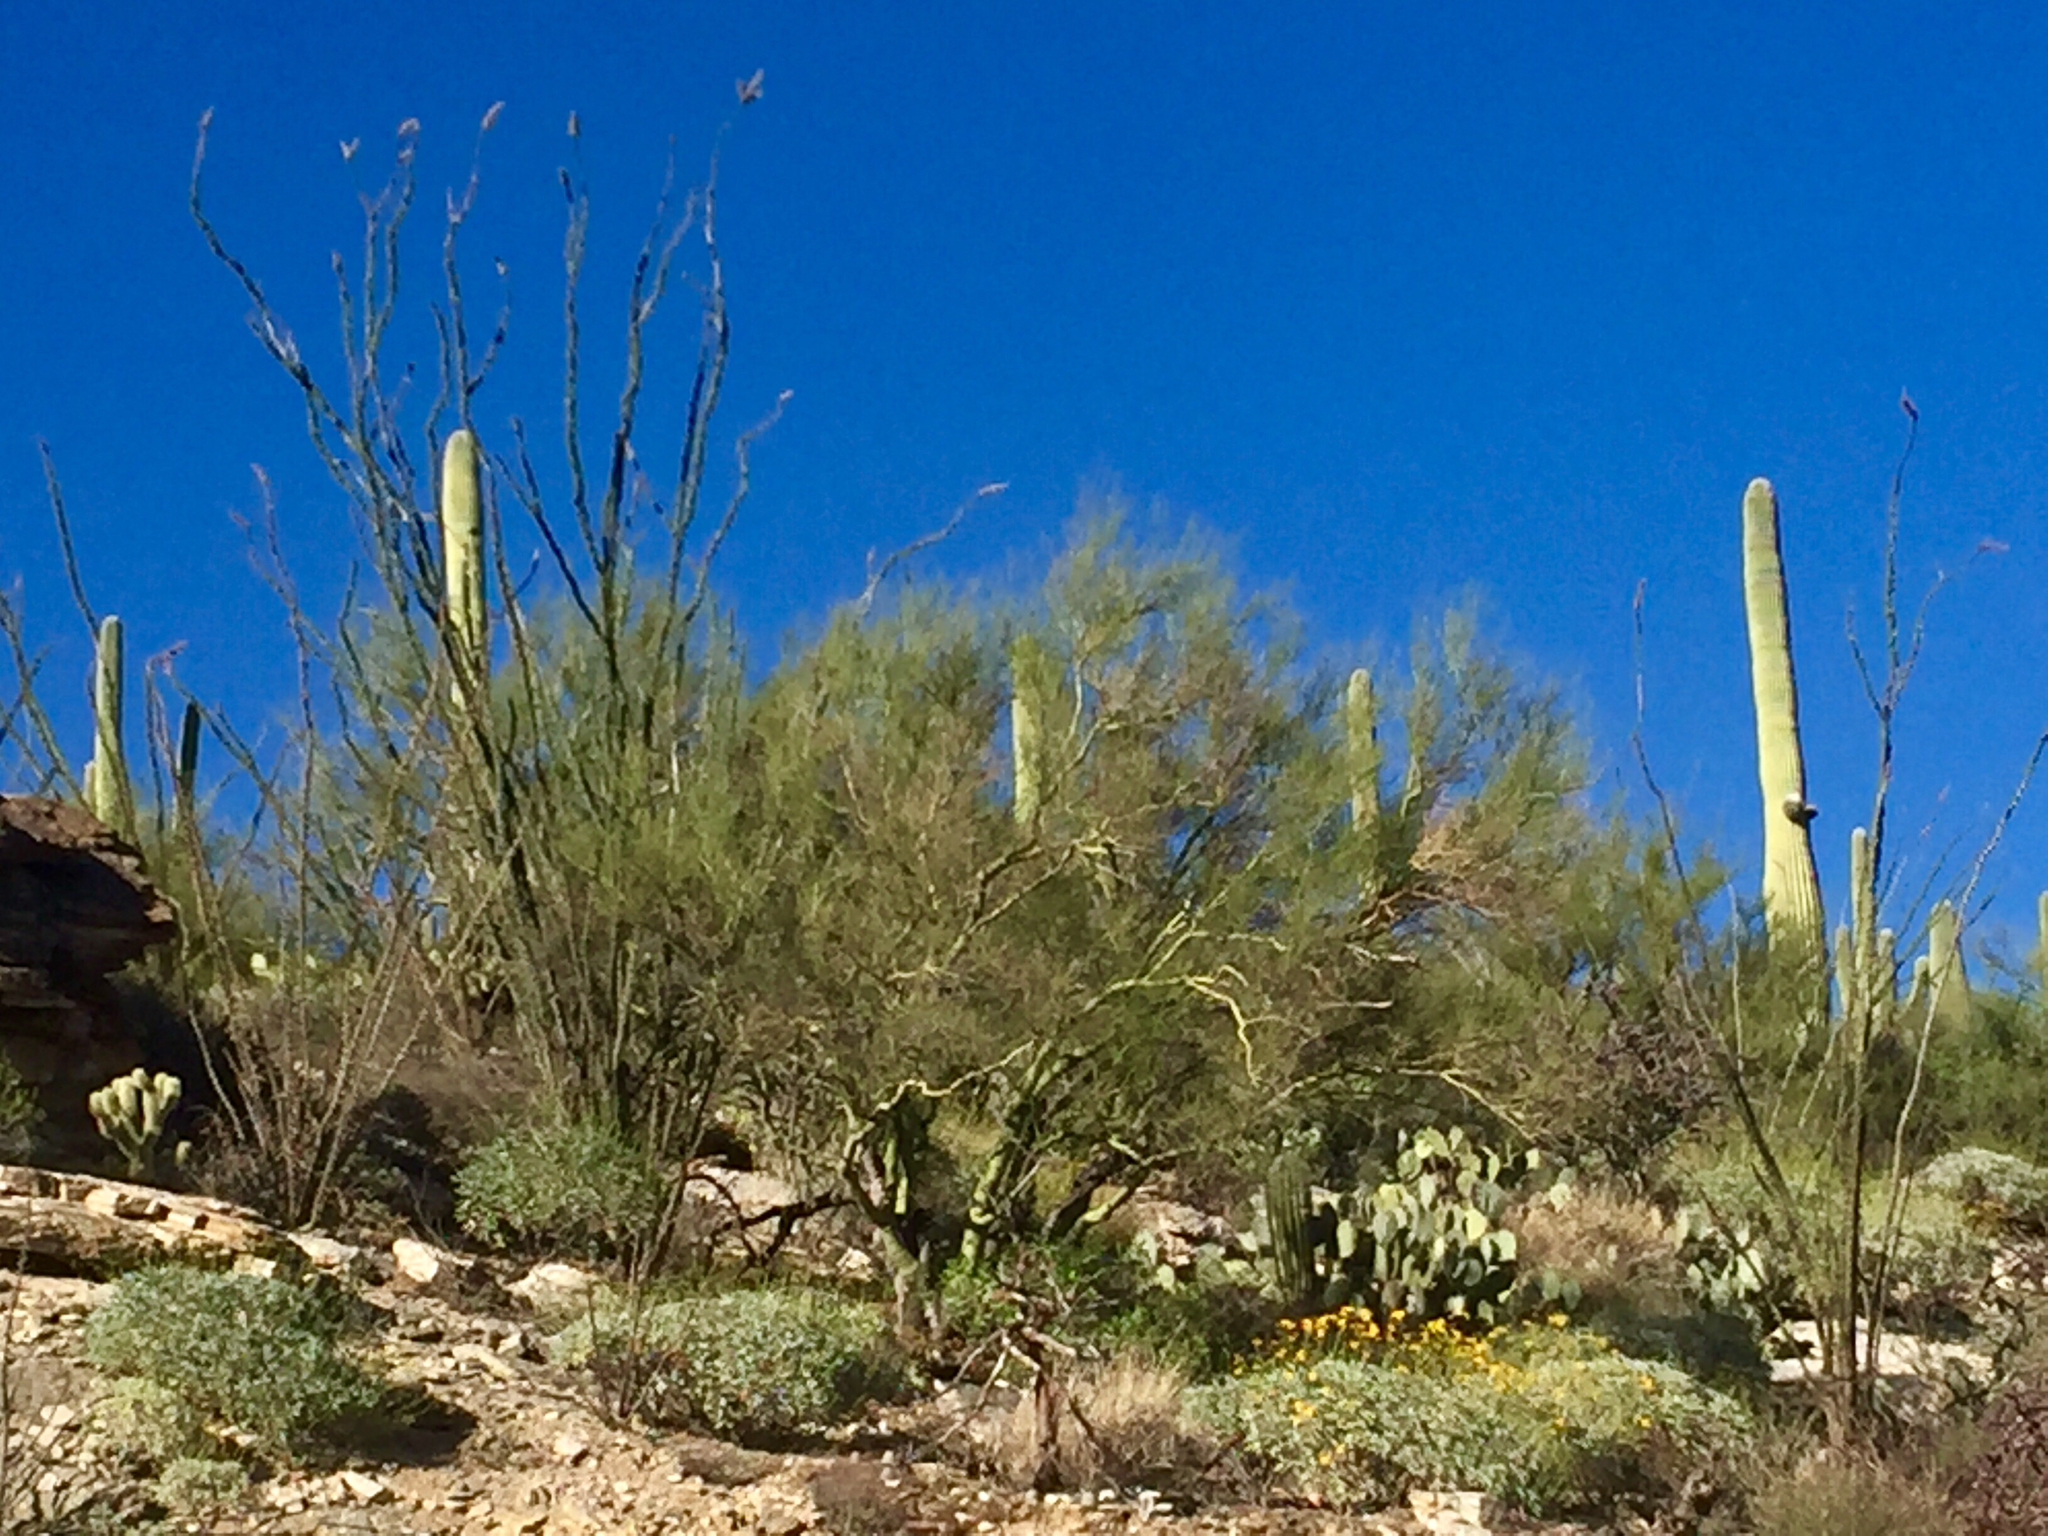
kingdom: Plantae
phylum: Tracheophyta
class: Magnoliopsida
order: Fabales
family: Fabaceae
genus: Parkinsonia
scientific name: Parkinsonia microphylla
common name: Yellow paloverde
